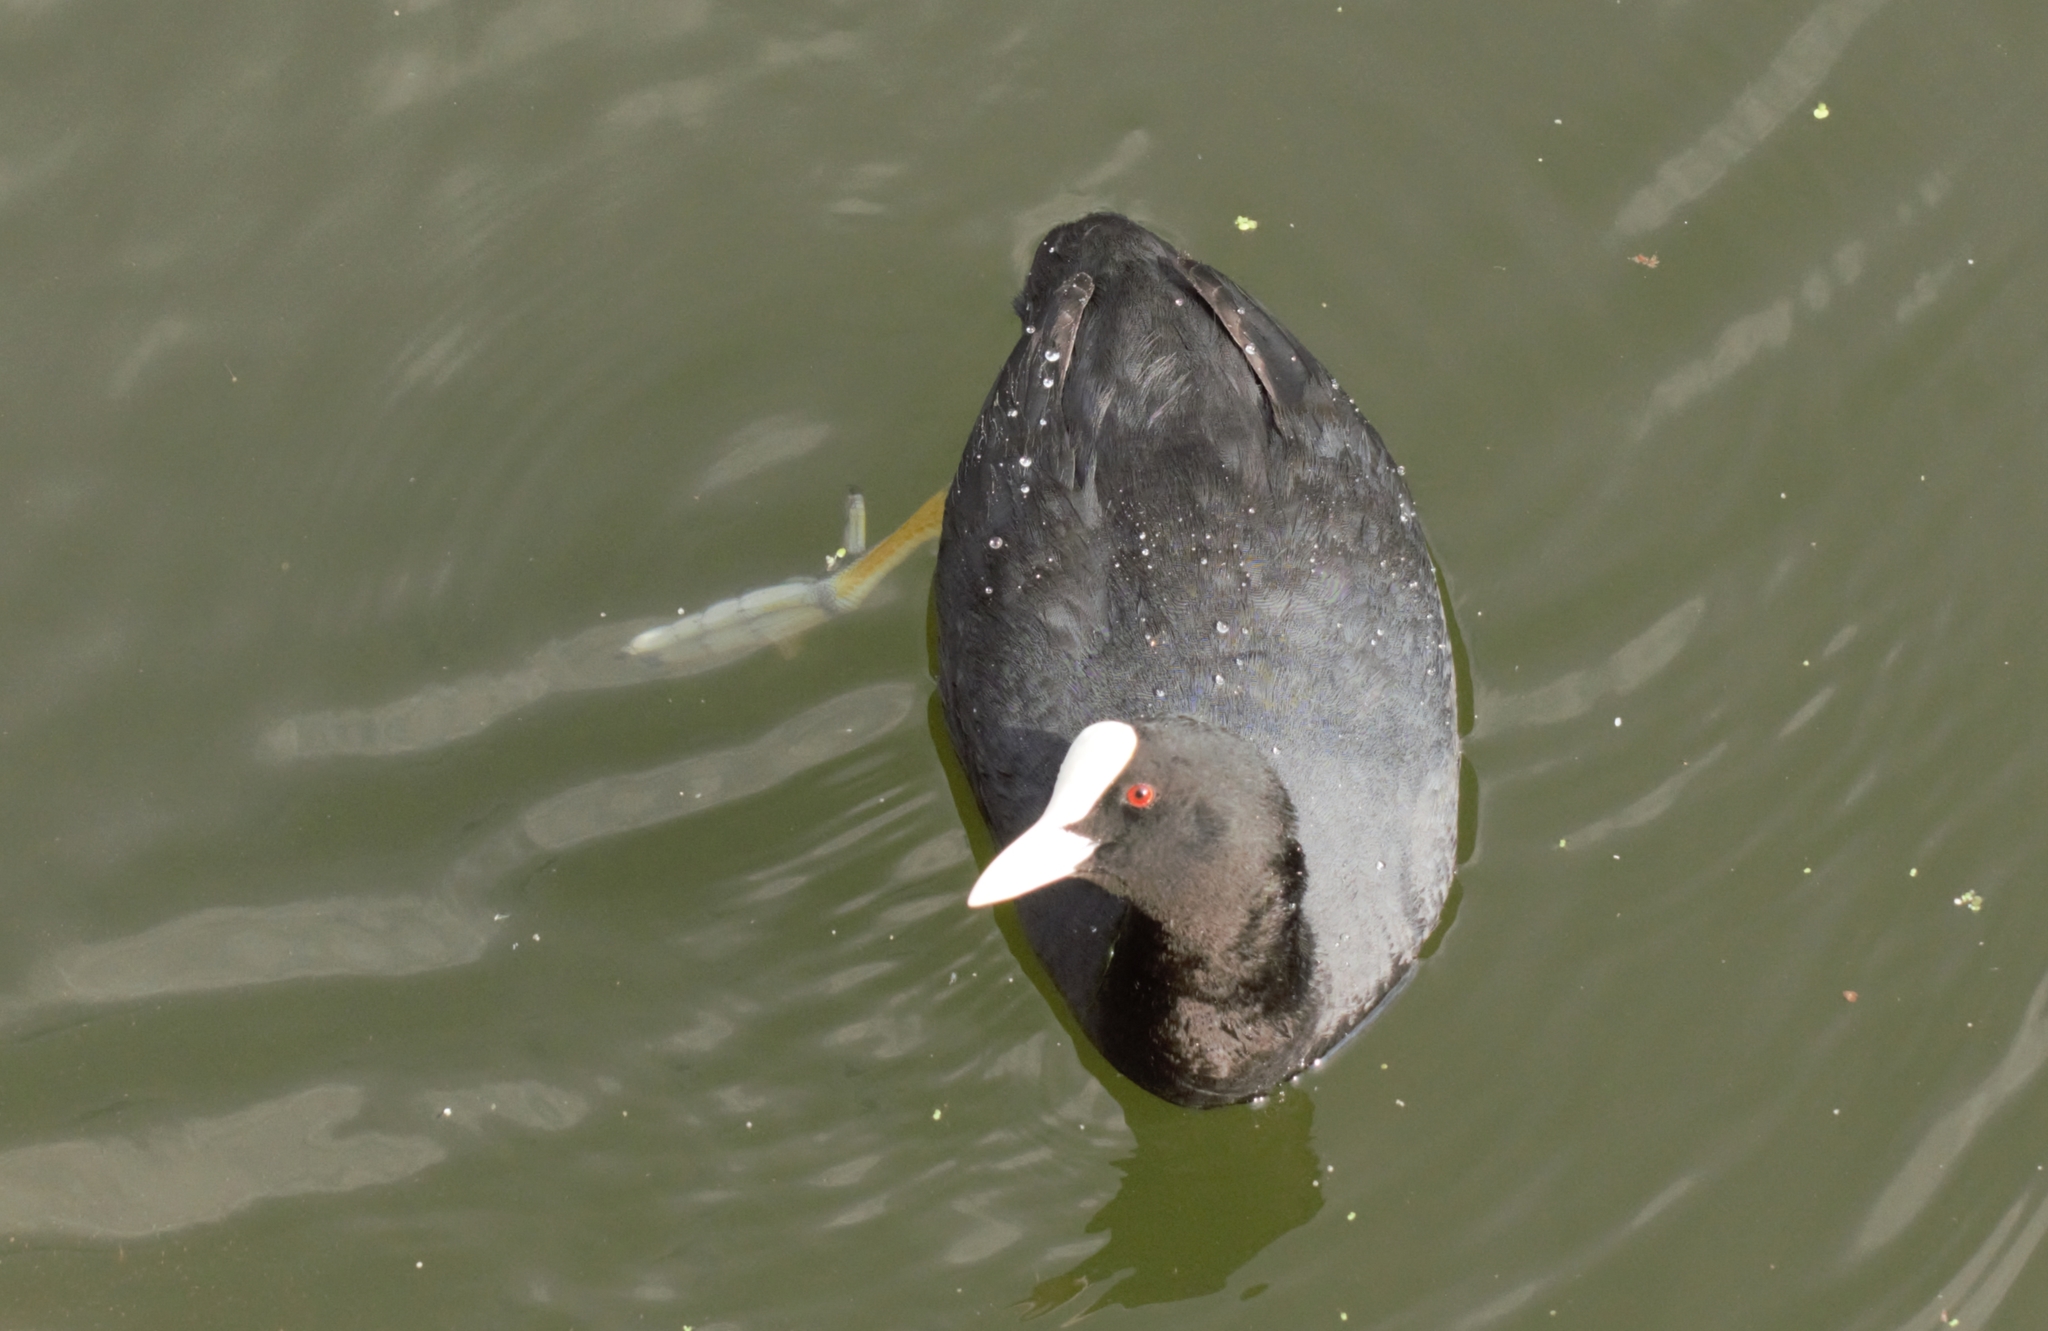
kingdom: Animalia
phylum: Chordata
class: Aves
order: Gruiformes
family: Rallidae
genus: Fulica
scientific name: Fulica atra
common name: Eurasian coot
